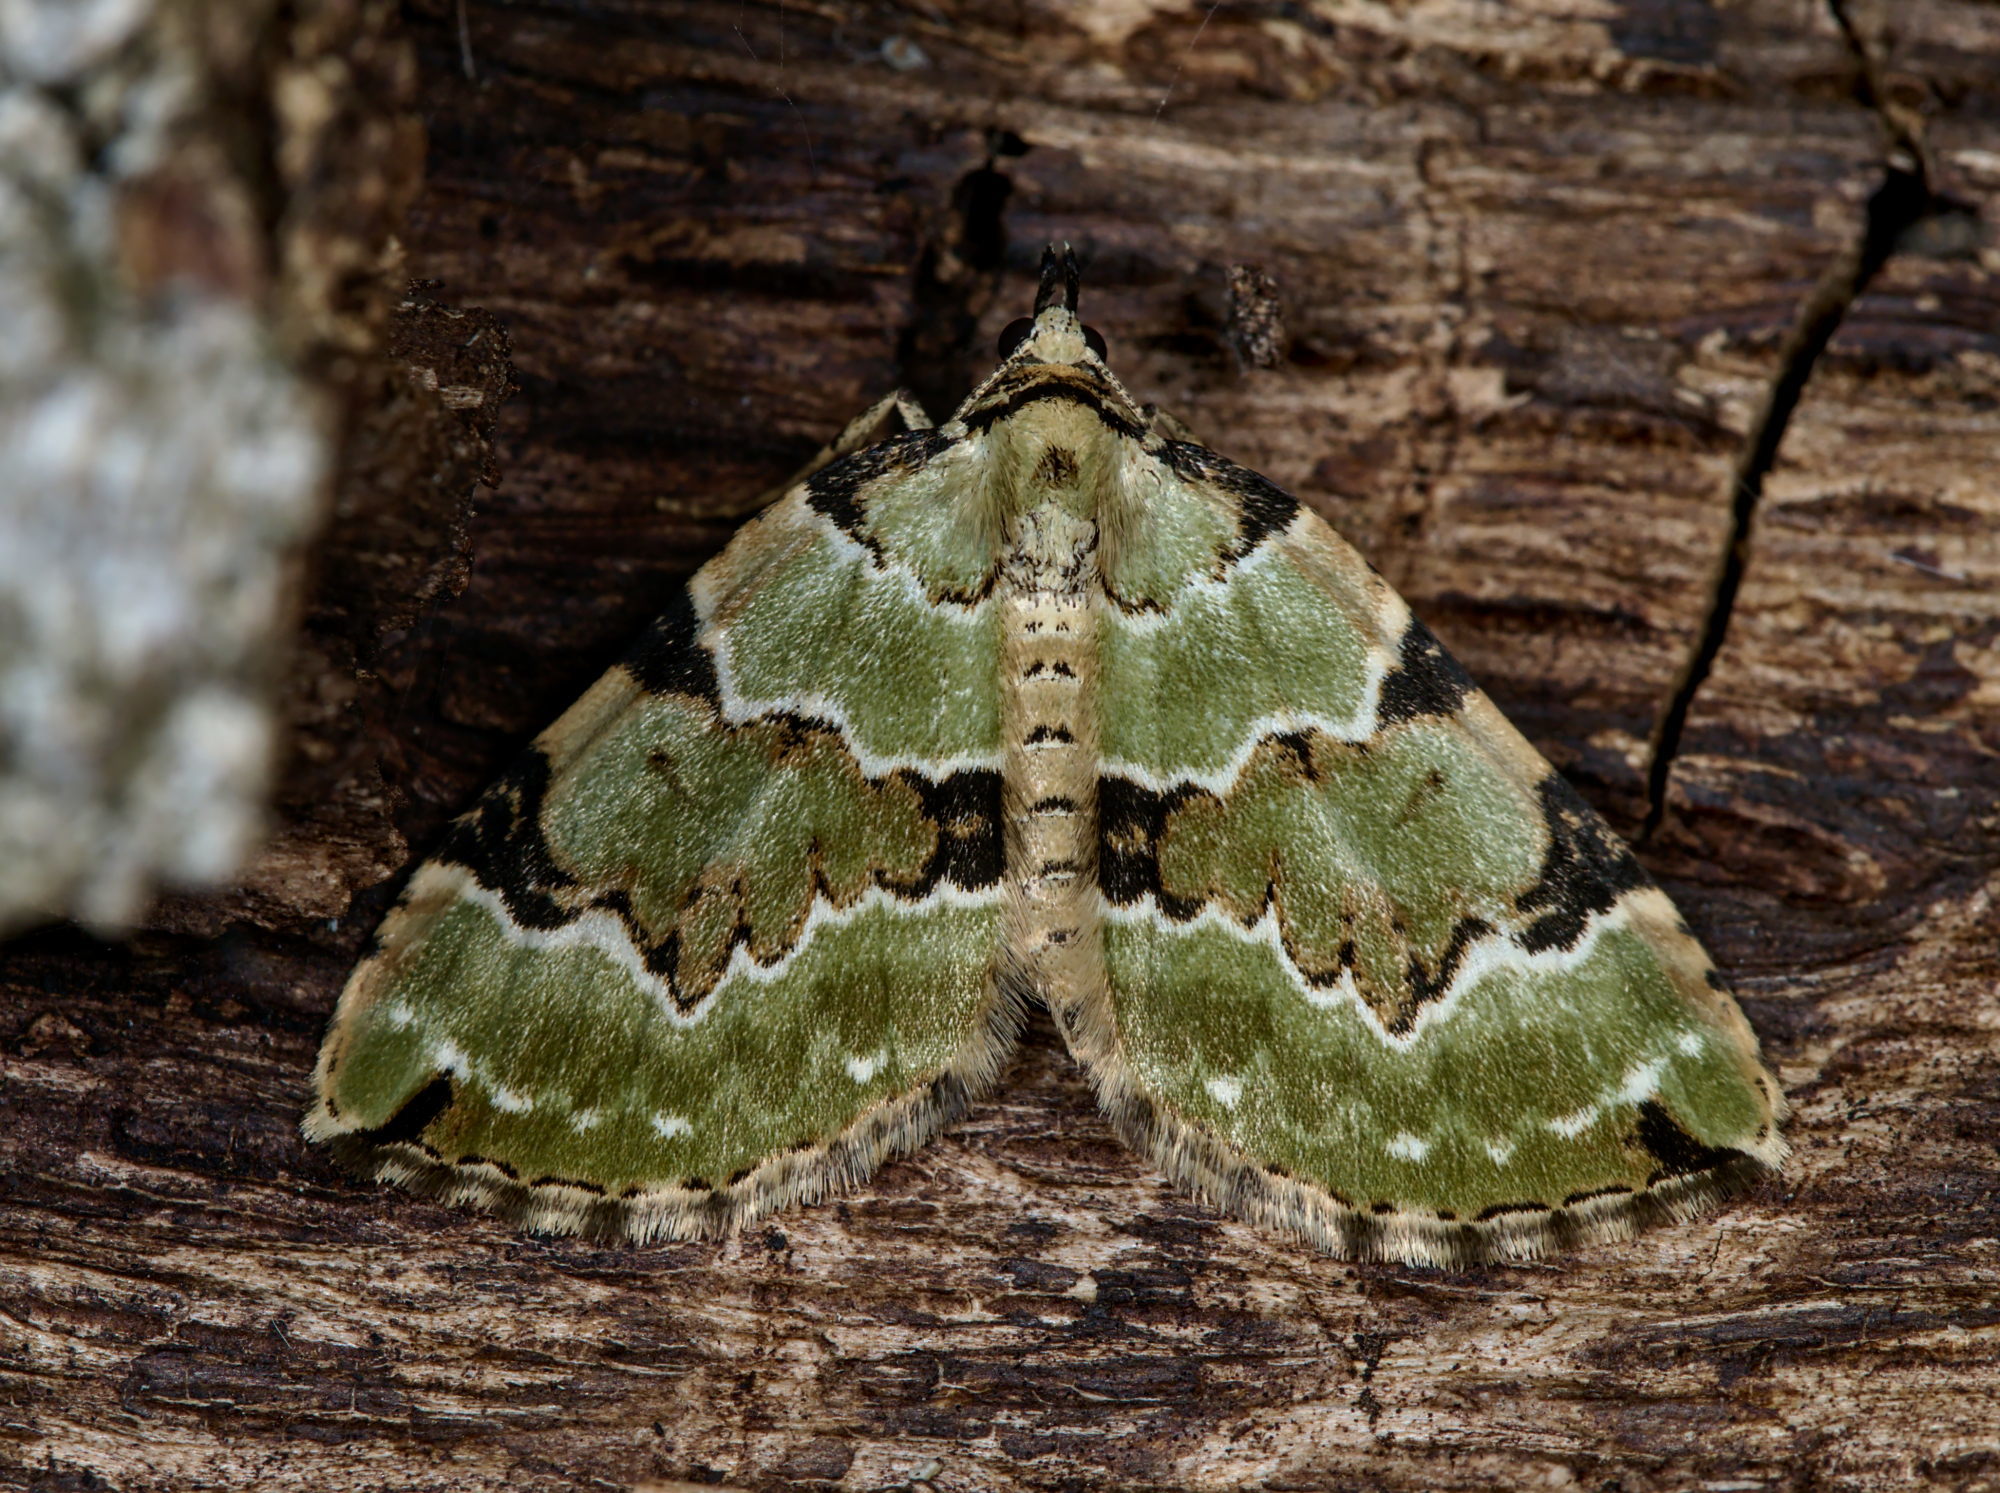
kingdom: Animalia
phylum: Arthropoda
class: Insecta
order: Lepidoptera
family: Geometridae
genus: Colostygia
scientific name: Colostygia pectinataria
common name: Green carpet
